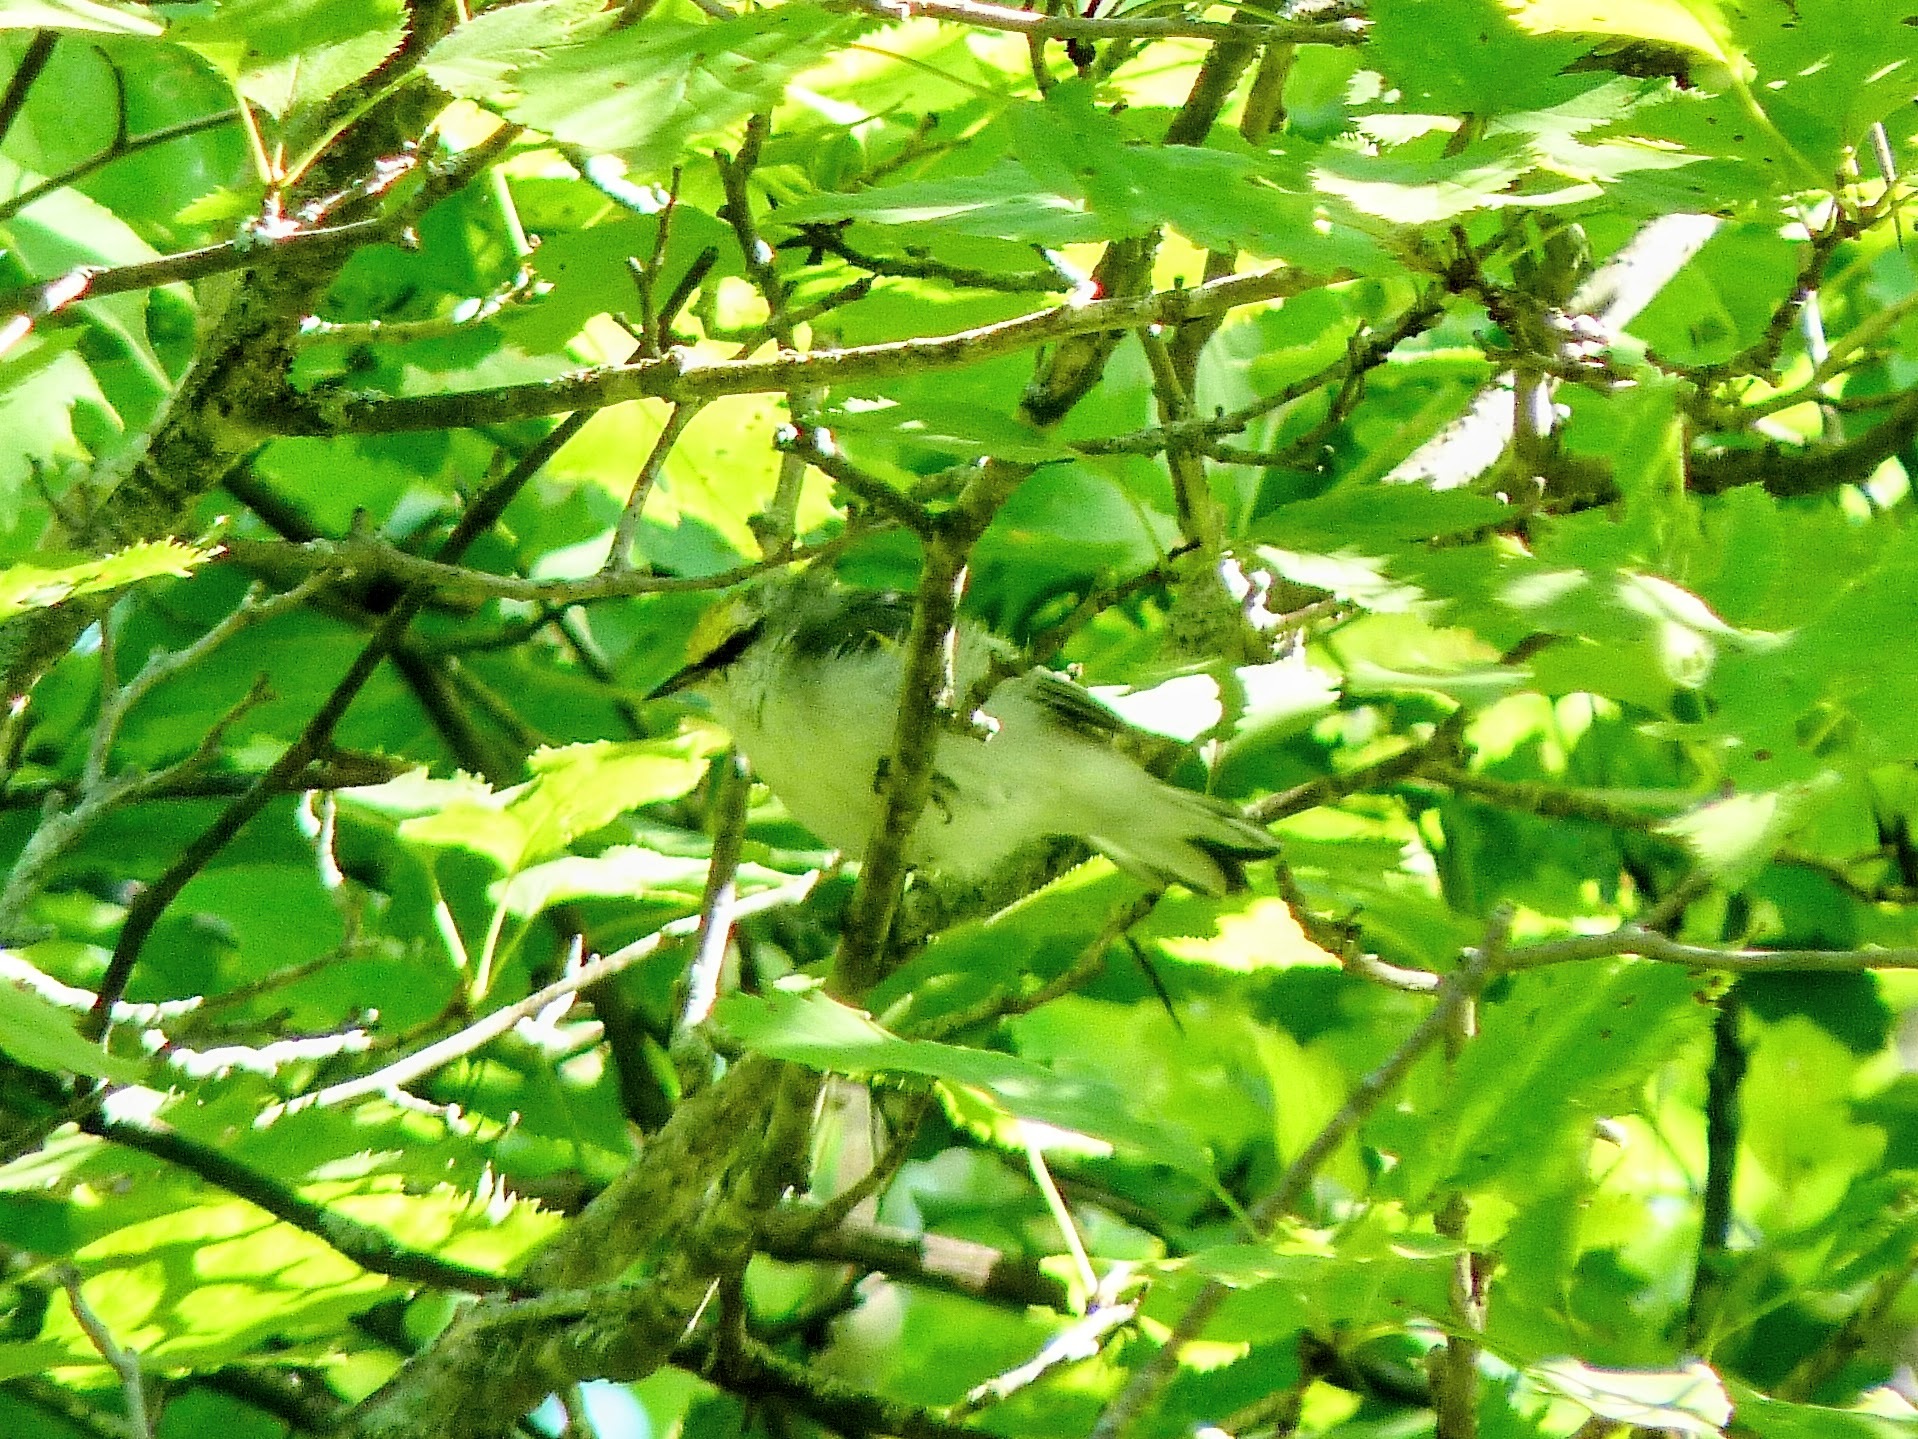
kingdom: Animalia
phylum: Chordata
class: Aves
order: Passeriformes
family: Parulidae
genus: Vermivora
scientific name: Vermivora
